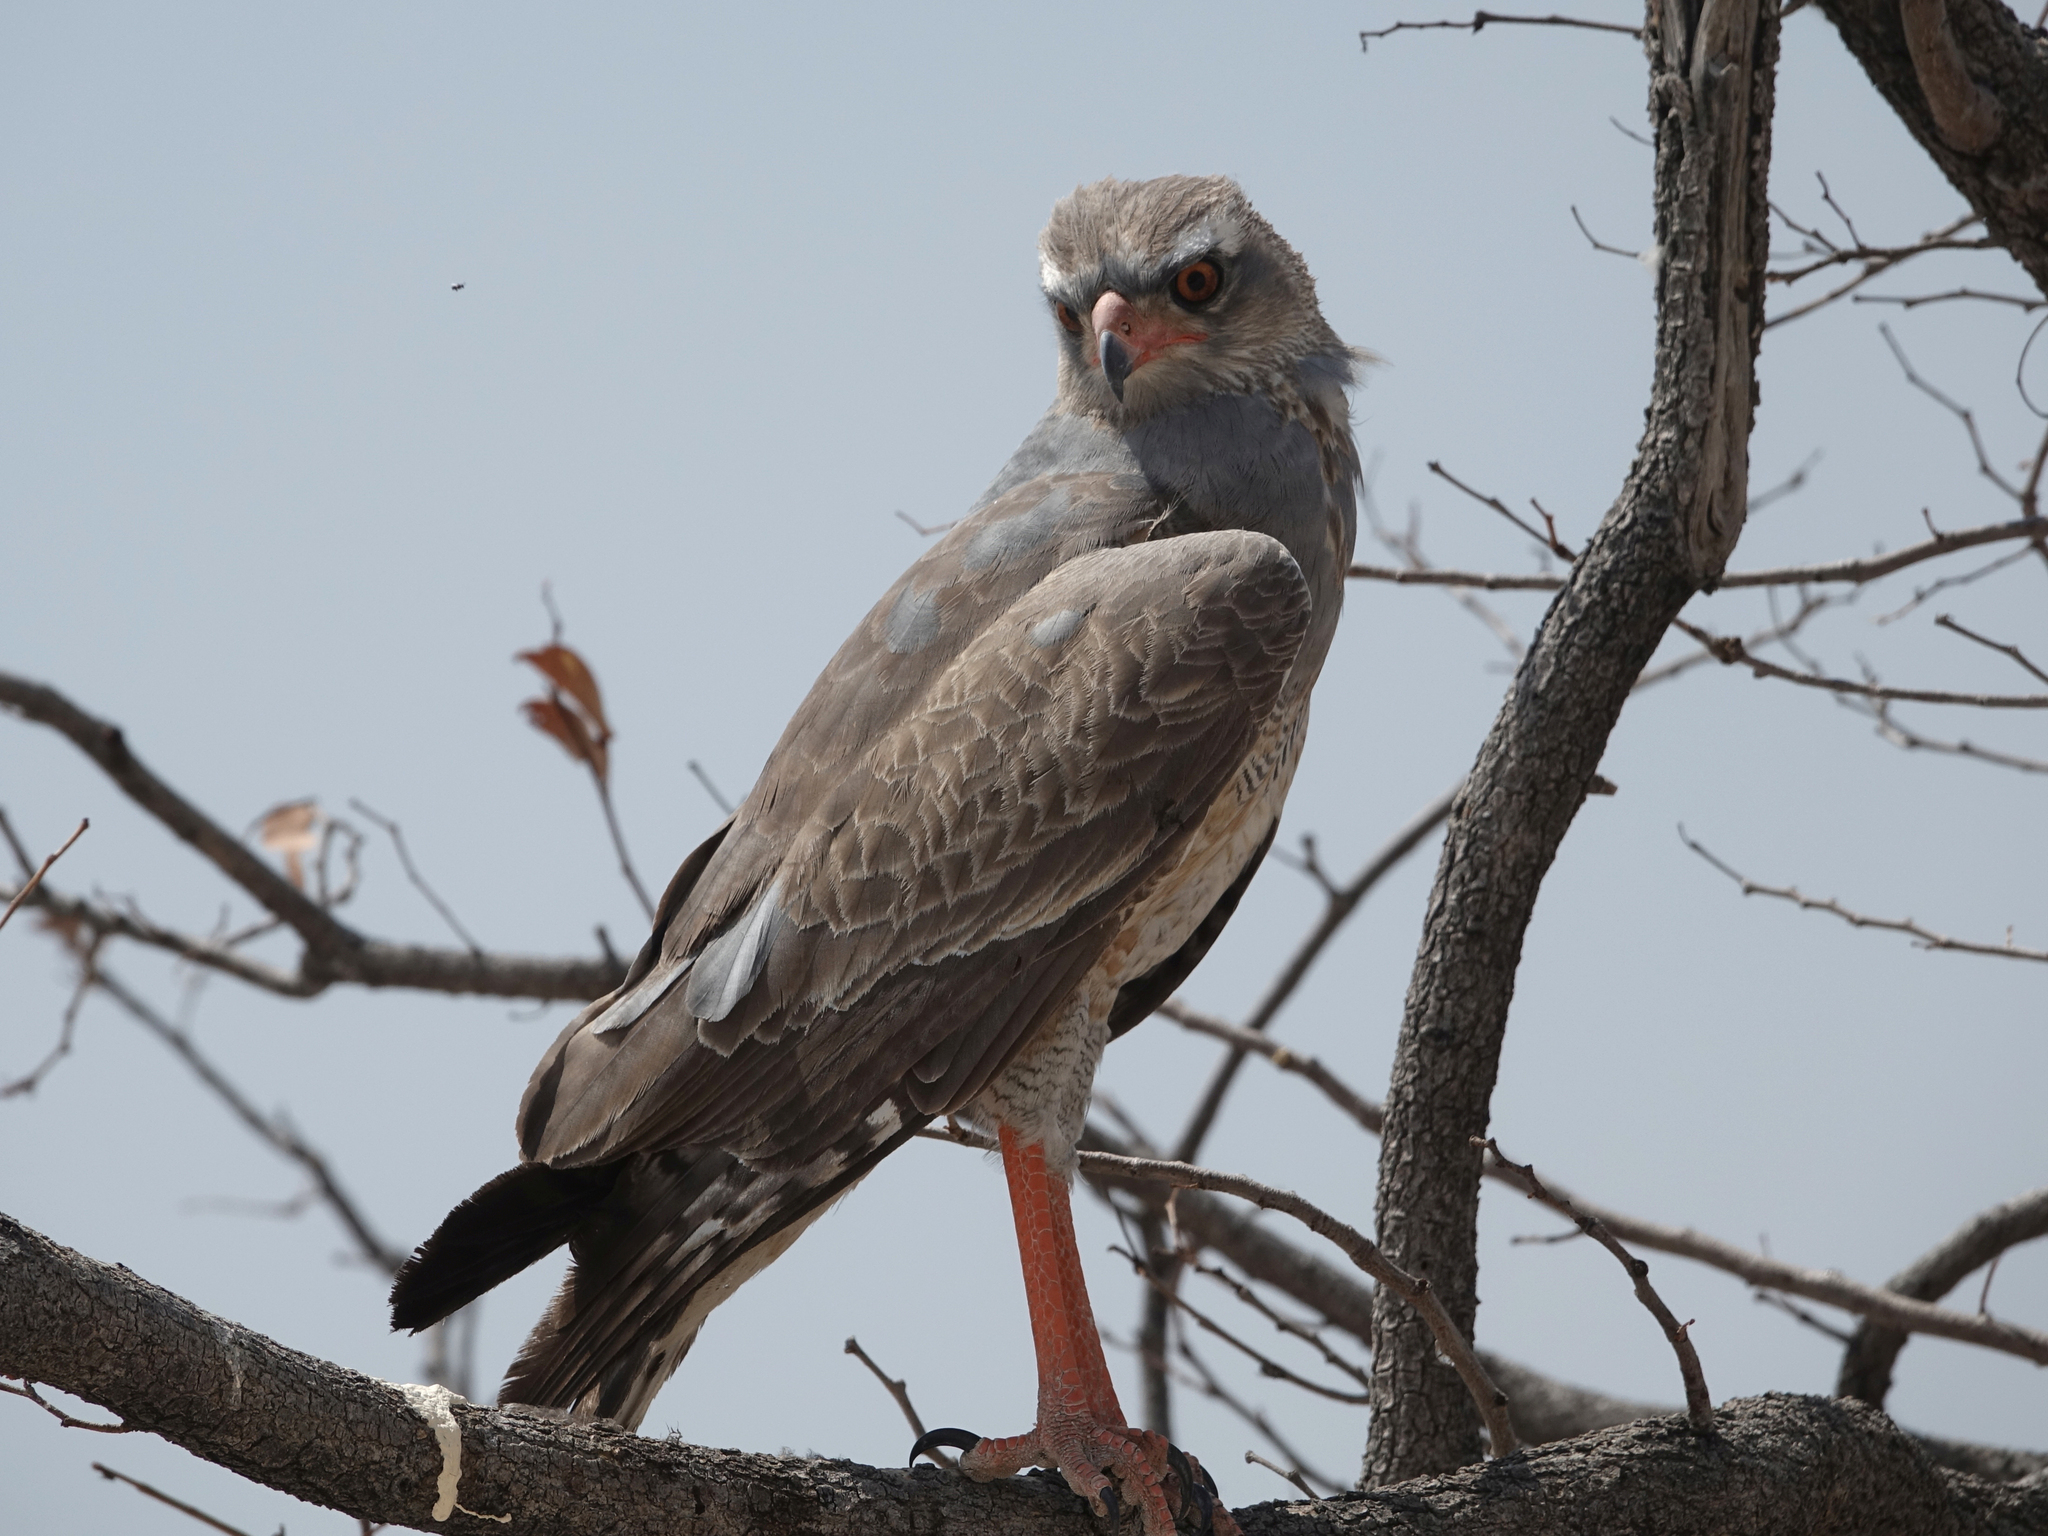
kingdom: Animalia
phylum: Chordata
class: Aves
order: Accipitriformes
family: Accipitridae
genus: Melierax
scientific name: Melierax canorus
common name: Pale chanting-goshawk
